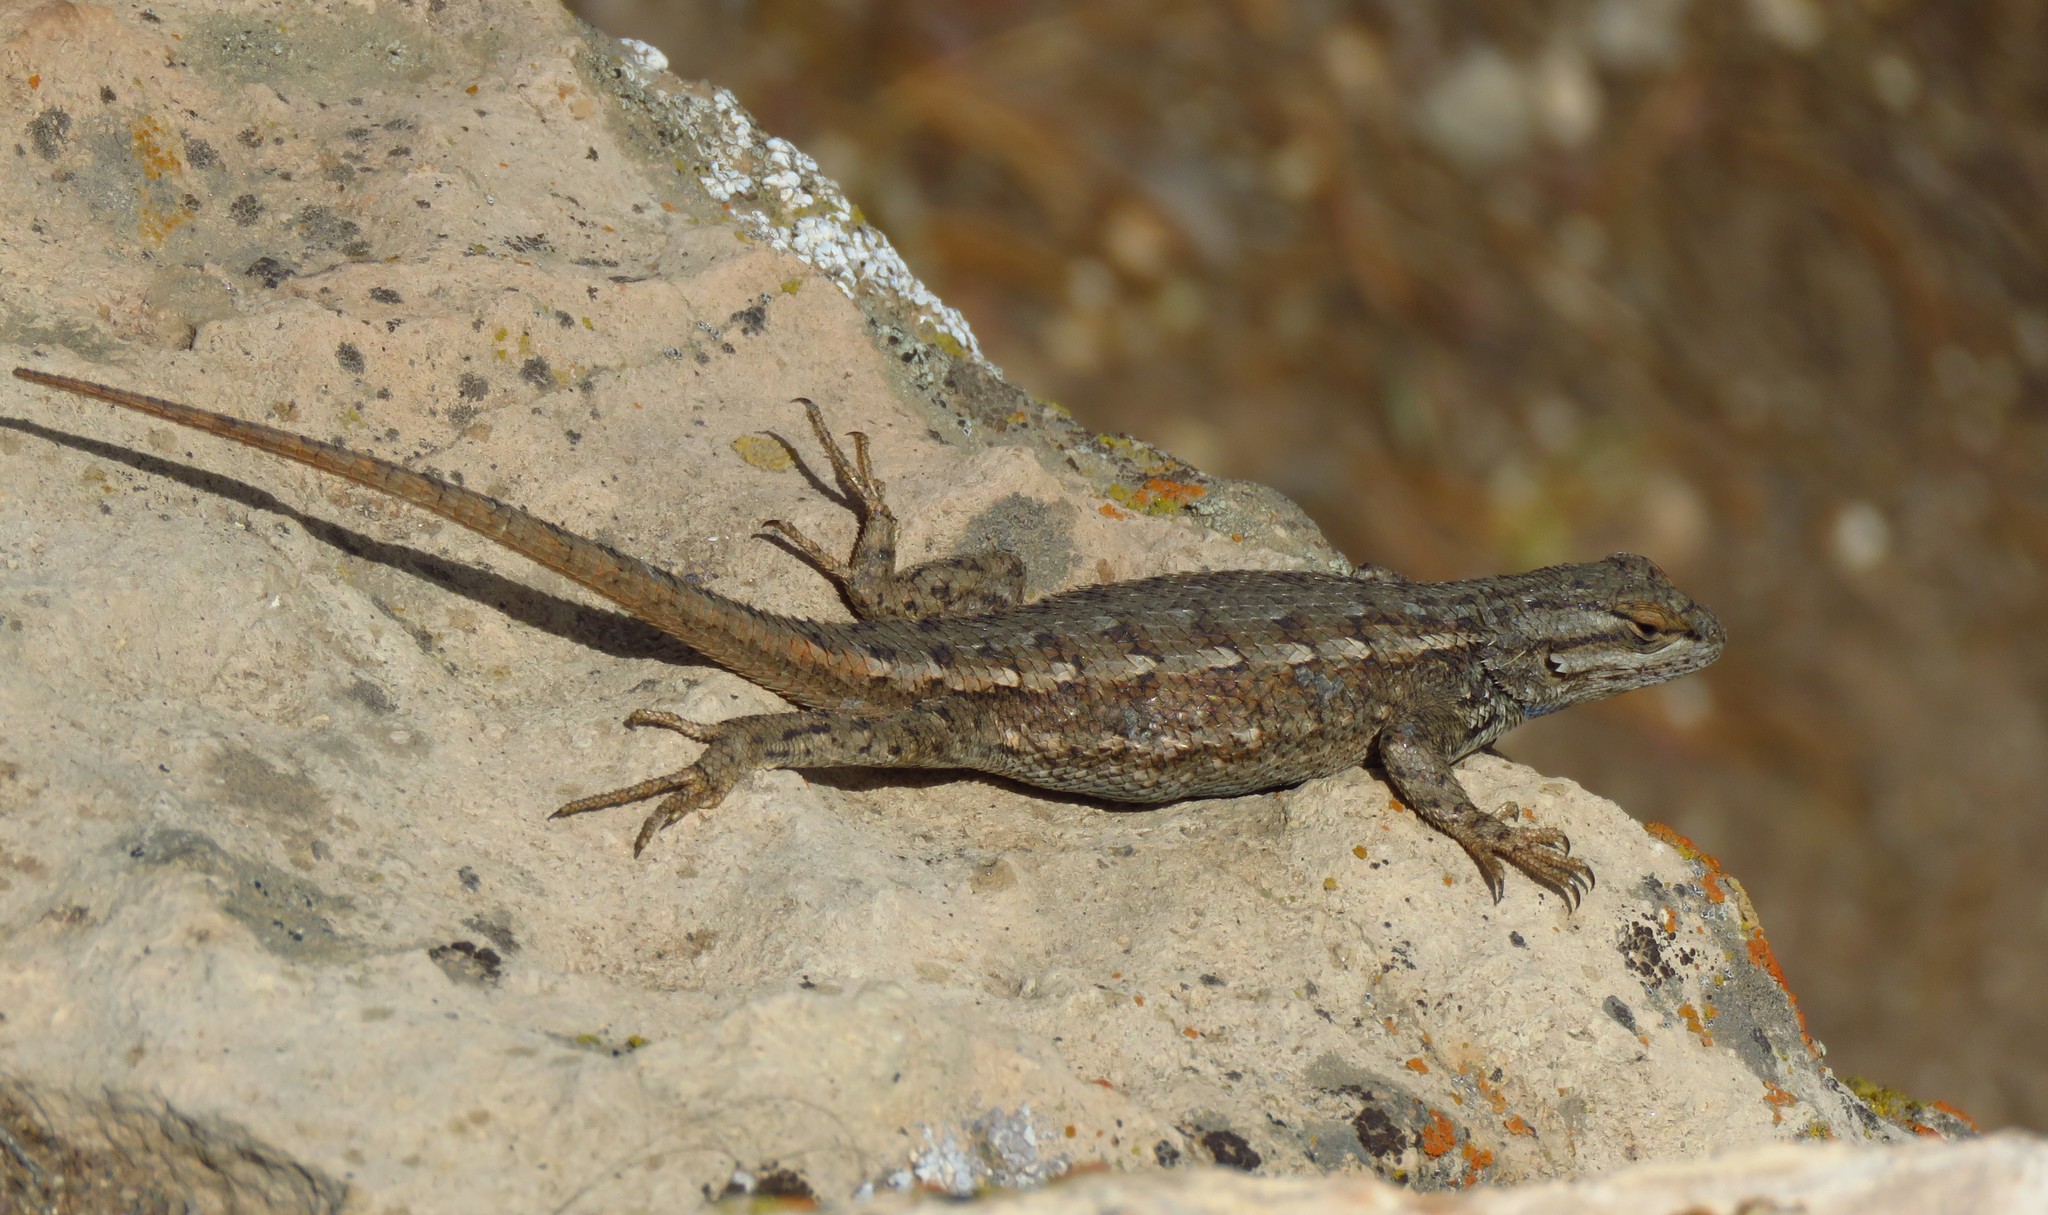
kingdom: Animalia
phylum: Chordata
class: Squamata
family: Phrynosomatidae
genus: Sceloporus
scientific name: Sceloporus tristichus
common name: Plateau fence lizard
